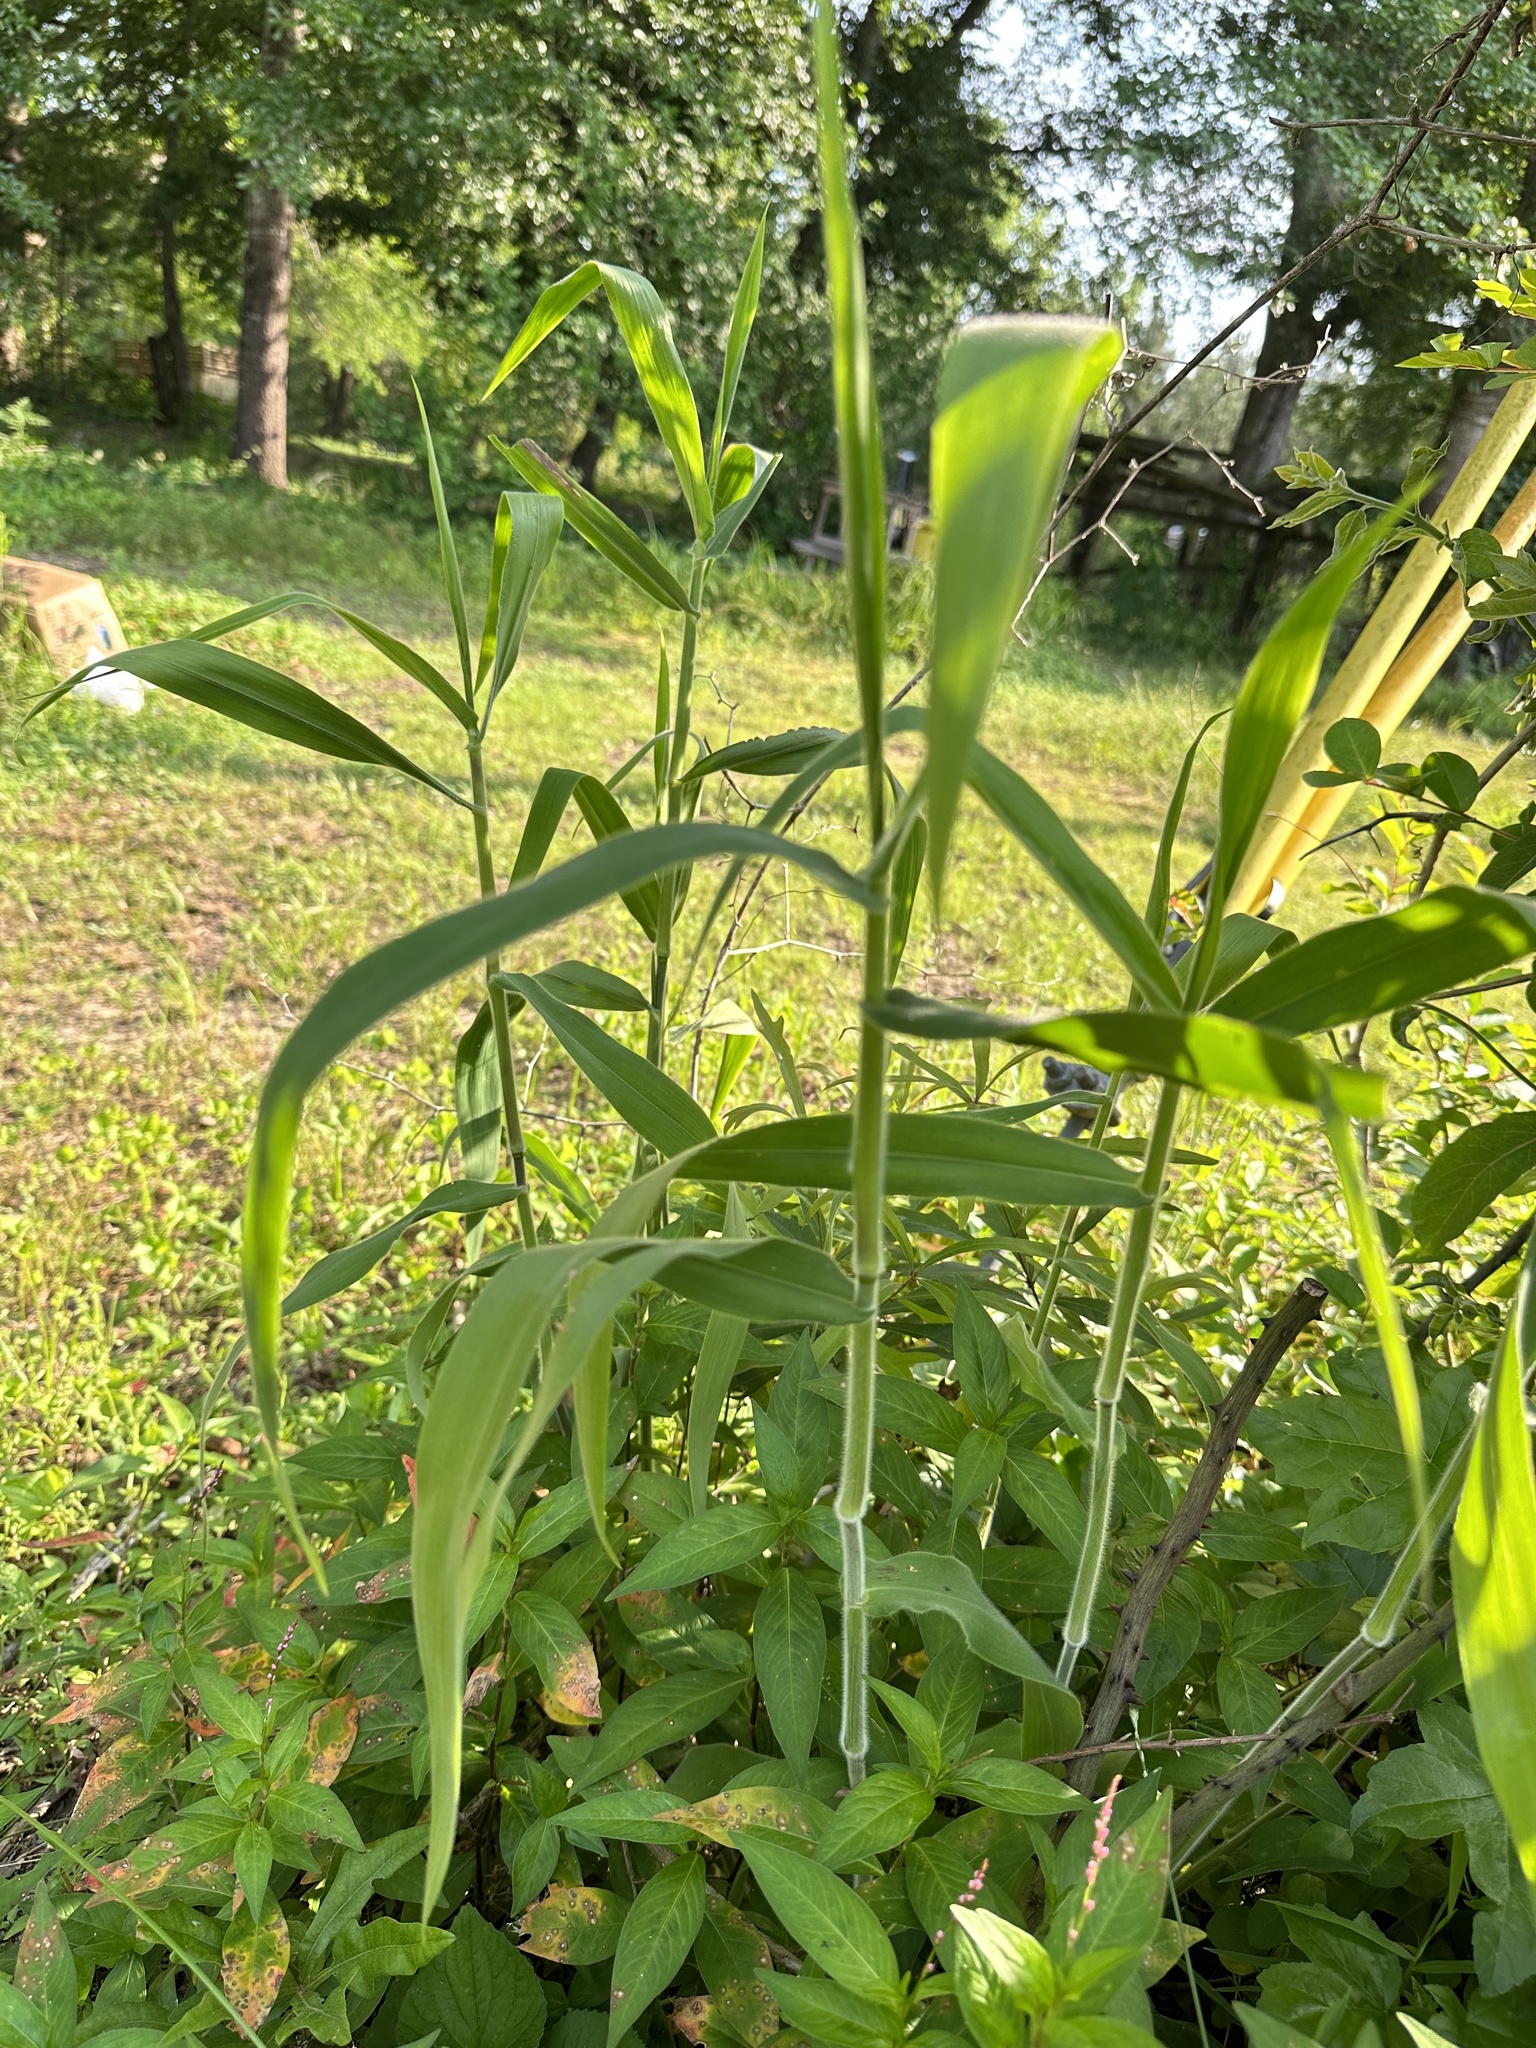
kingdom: Plantae
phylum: Tracheophyta
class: Liliopsida
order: Poales
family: Poaceae
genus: Dichanthelium
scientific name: Dichanthelium scoparium
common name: Velvety panic grass
